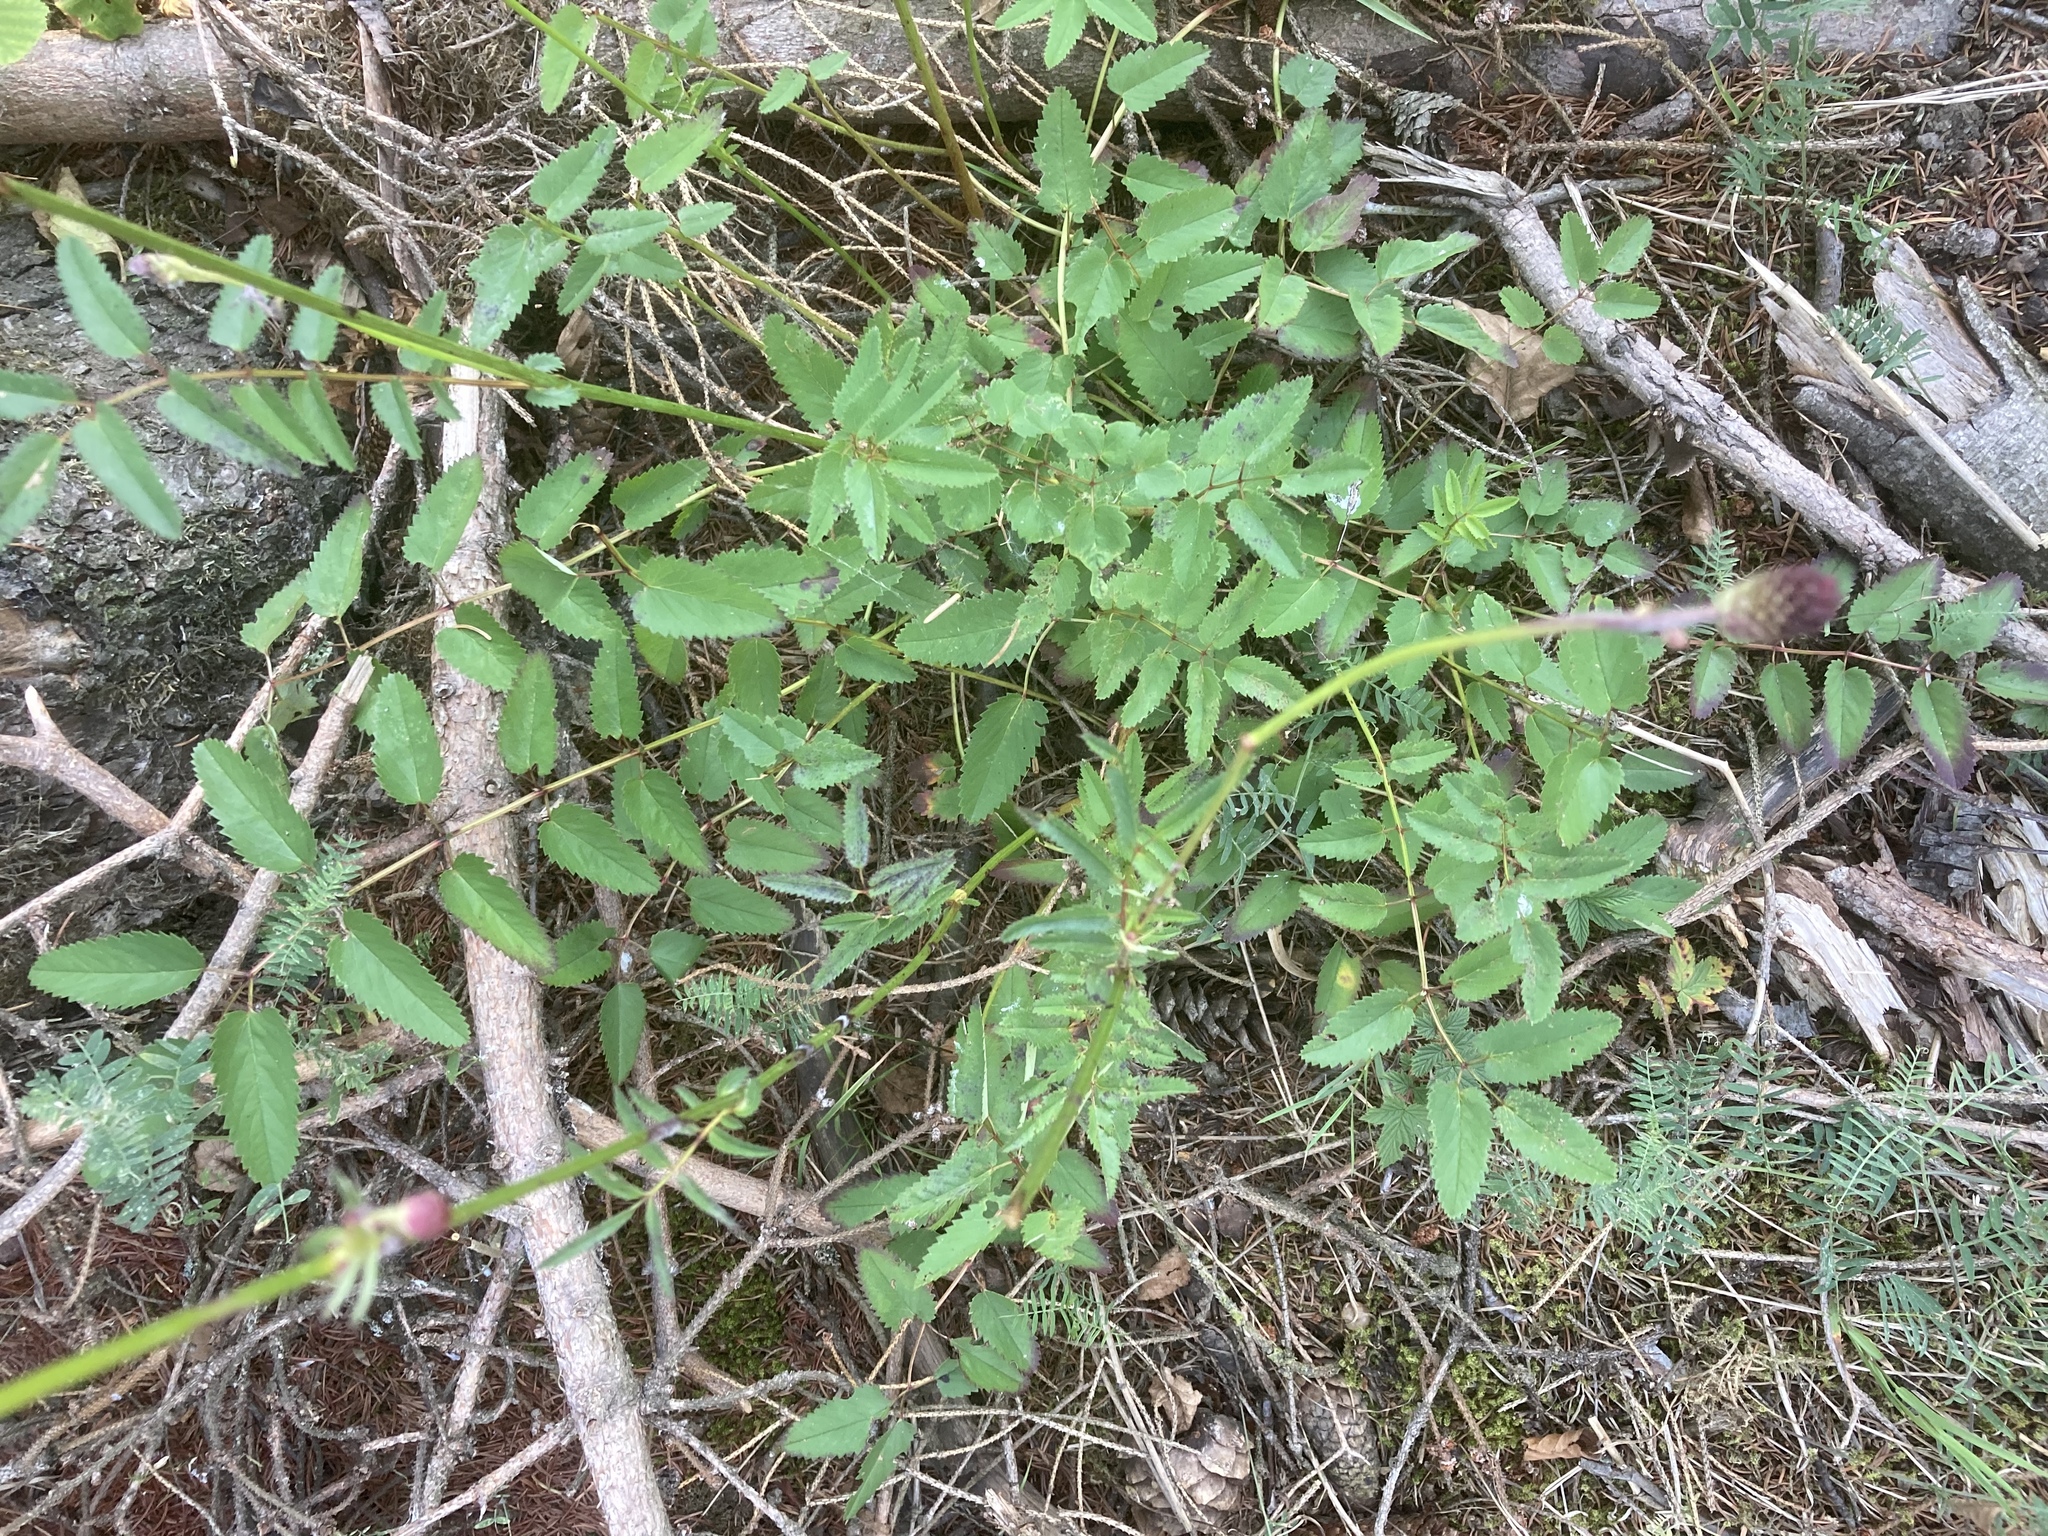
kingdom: Plantae
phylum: Tracheophyta
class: Magnoliopsida
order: Rosales
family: Rosaceae
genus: Sanguisorba
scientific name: Sanguisorba officinalis
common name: Great burnet
